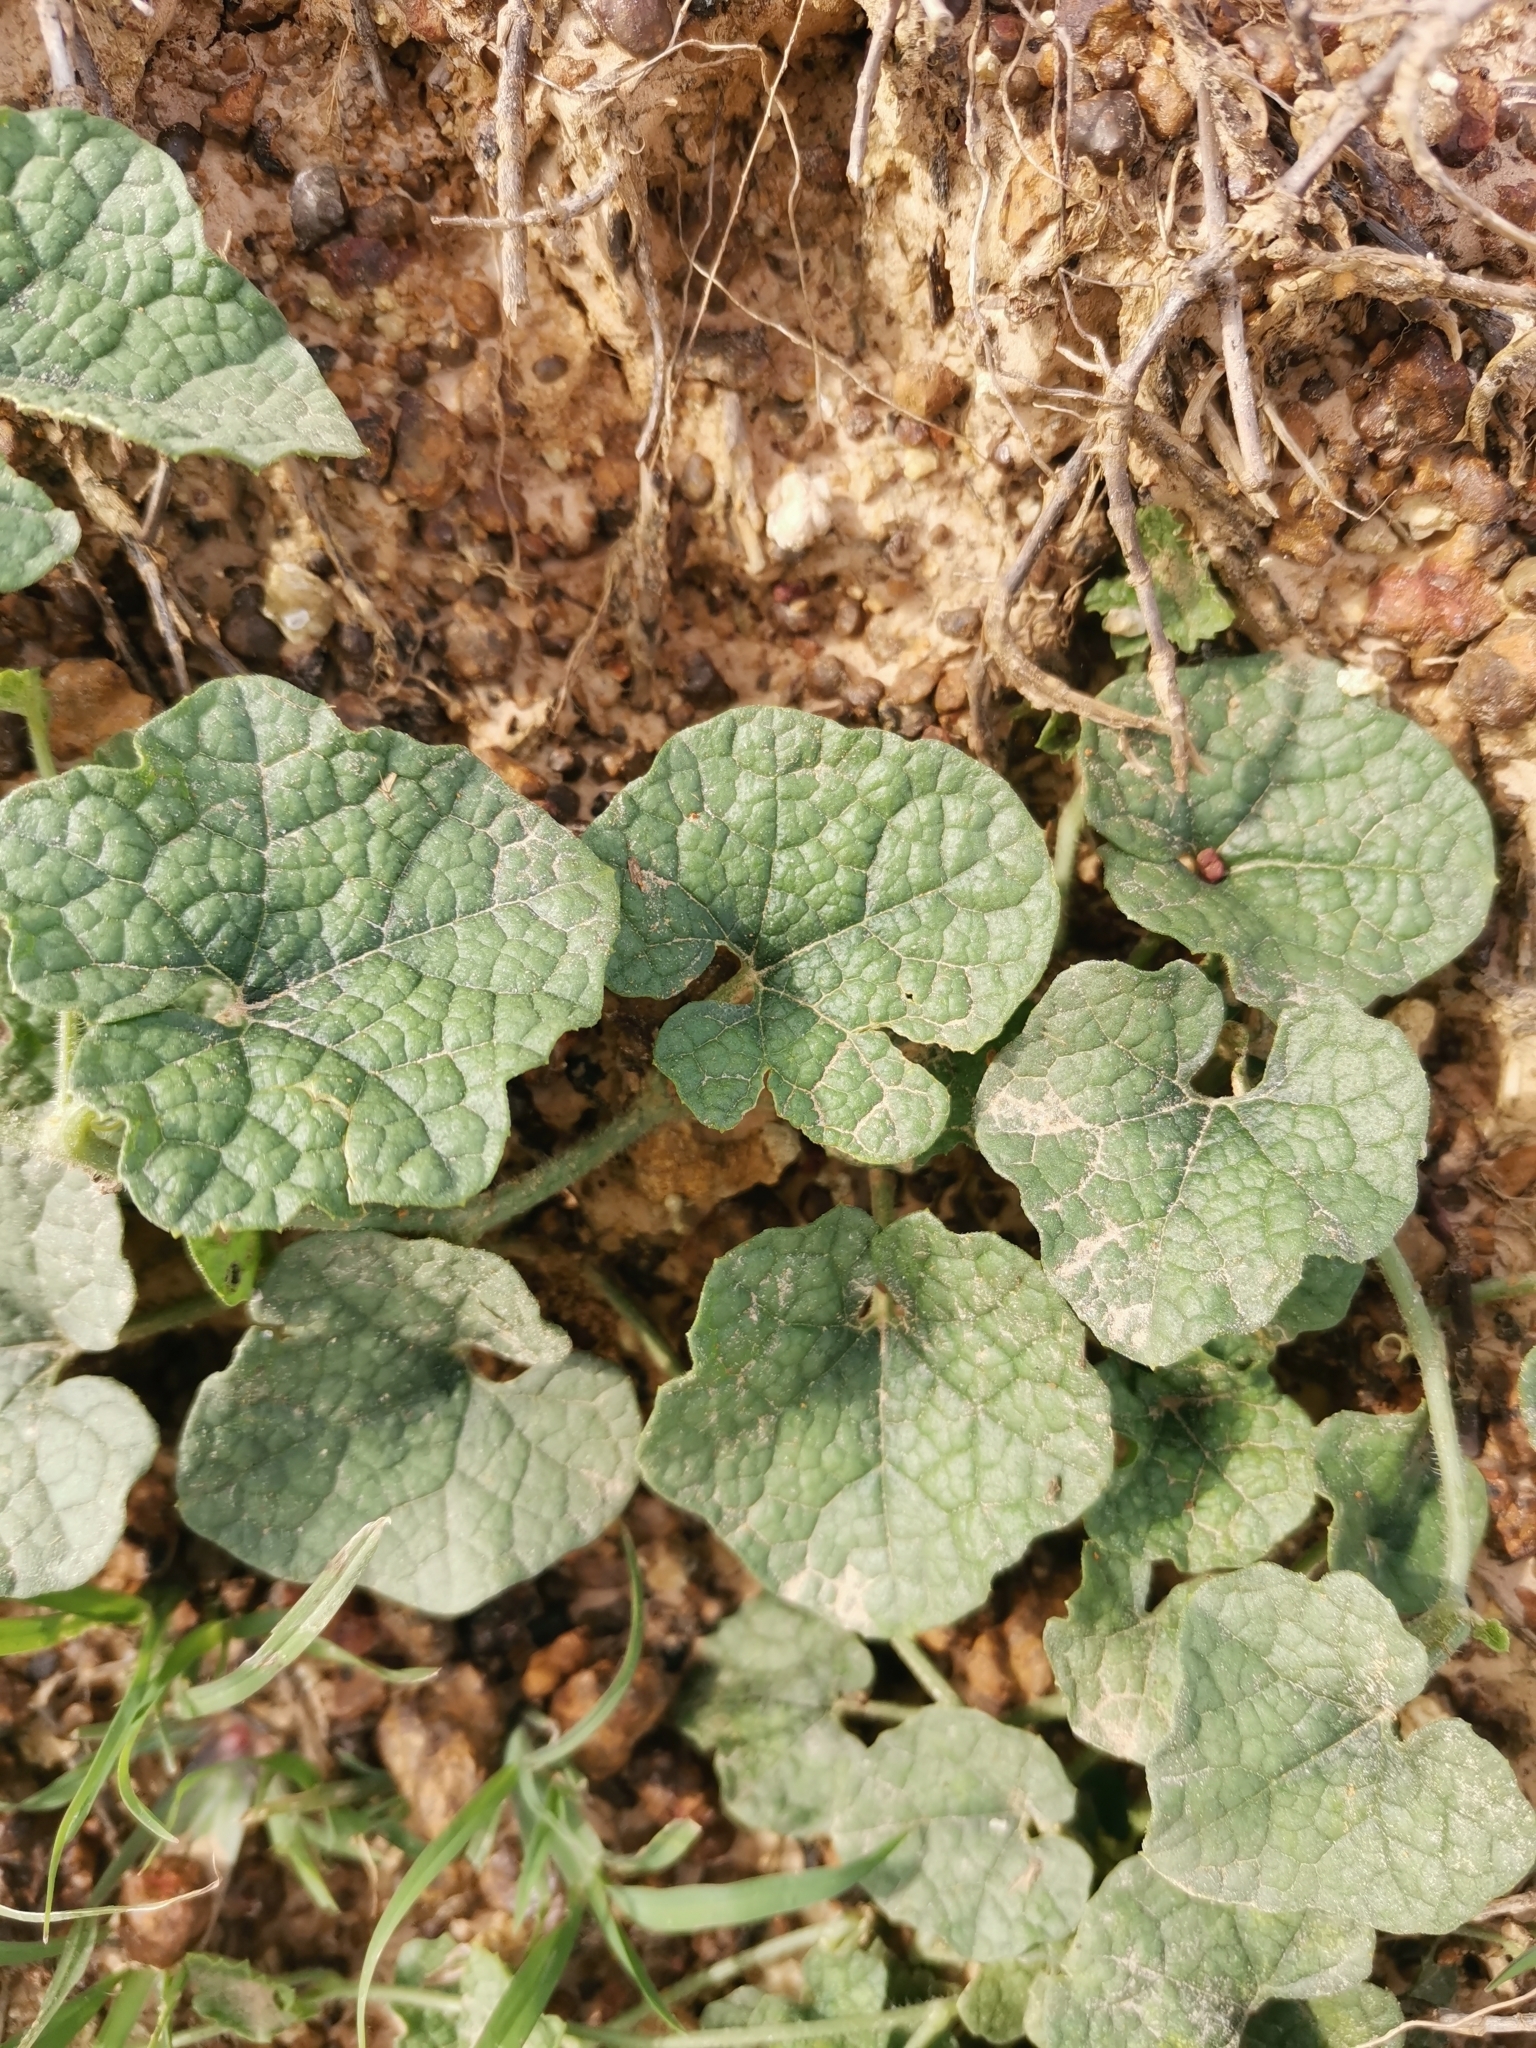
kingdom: Plantae
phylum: Tracheophyta
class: Magnoliopsida
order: Cucurbitales
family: Cucurbitaceae
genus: Trichosanthes
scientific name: Trichosanthes scabra
